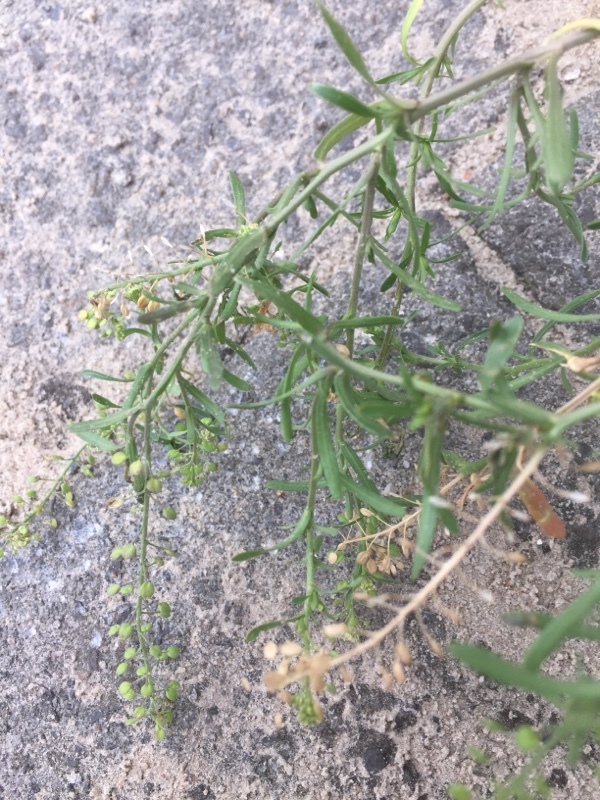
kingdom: Plantae
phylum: Tracheophyta
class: Magnoliopsida
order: Brassicales
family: Brassicaceae
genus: Lepidium
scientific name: Lepidium ruderale
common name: Narrow-leaved pepperwort
